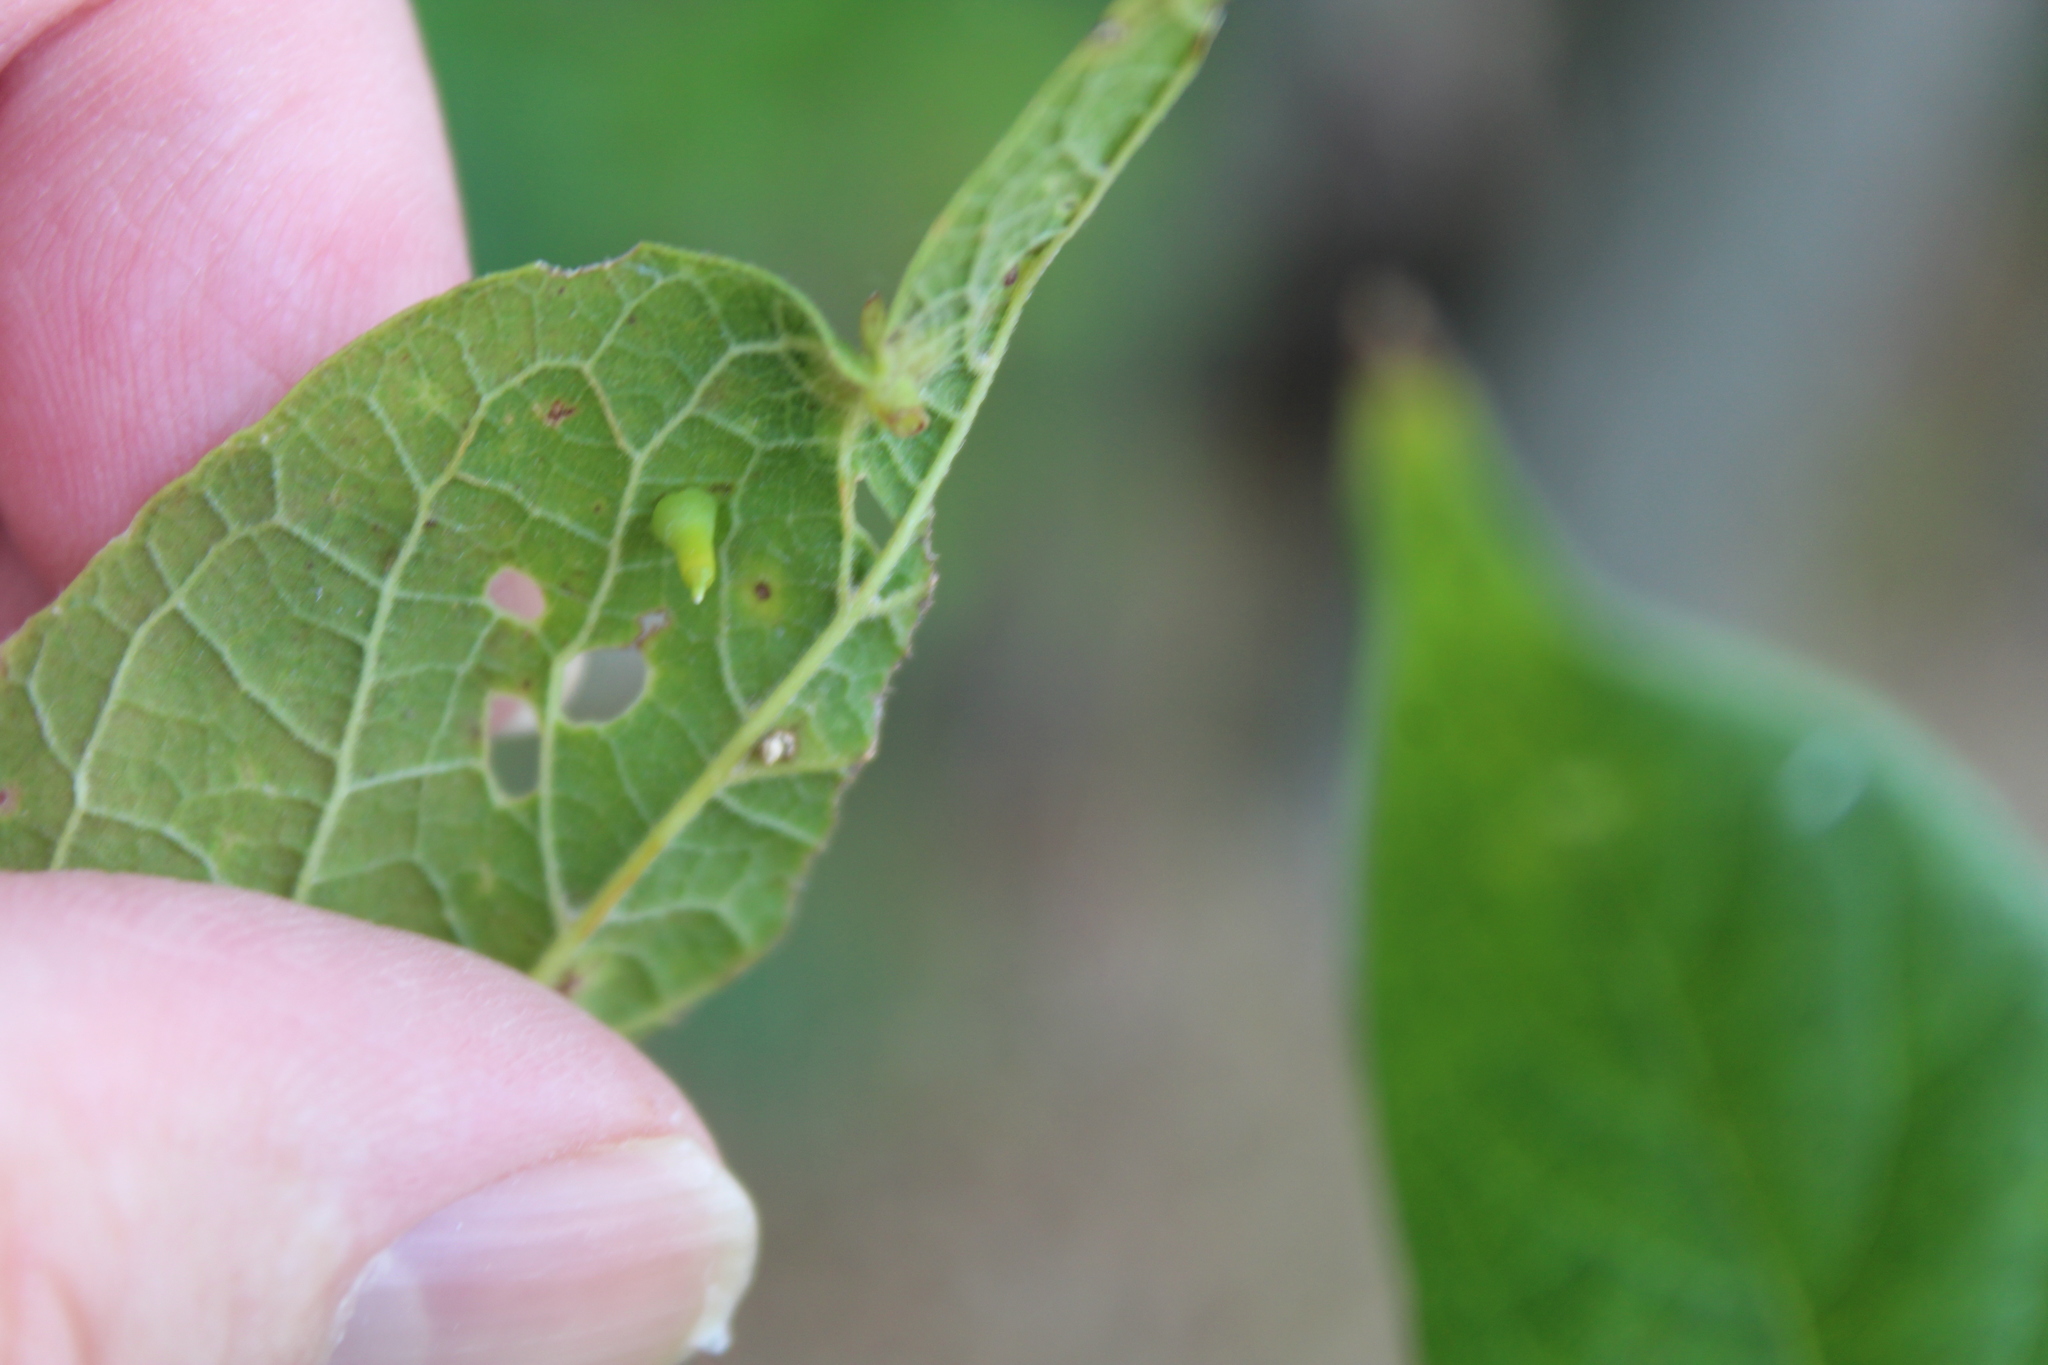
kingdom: Animalia
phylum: Arthropoda
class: Insecta
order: Diptera
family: Cecidomyiidae
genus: Celticecis
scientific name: Celticecis aciculata
